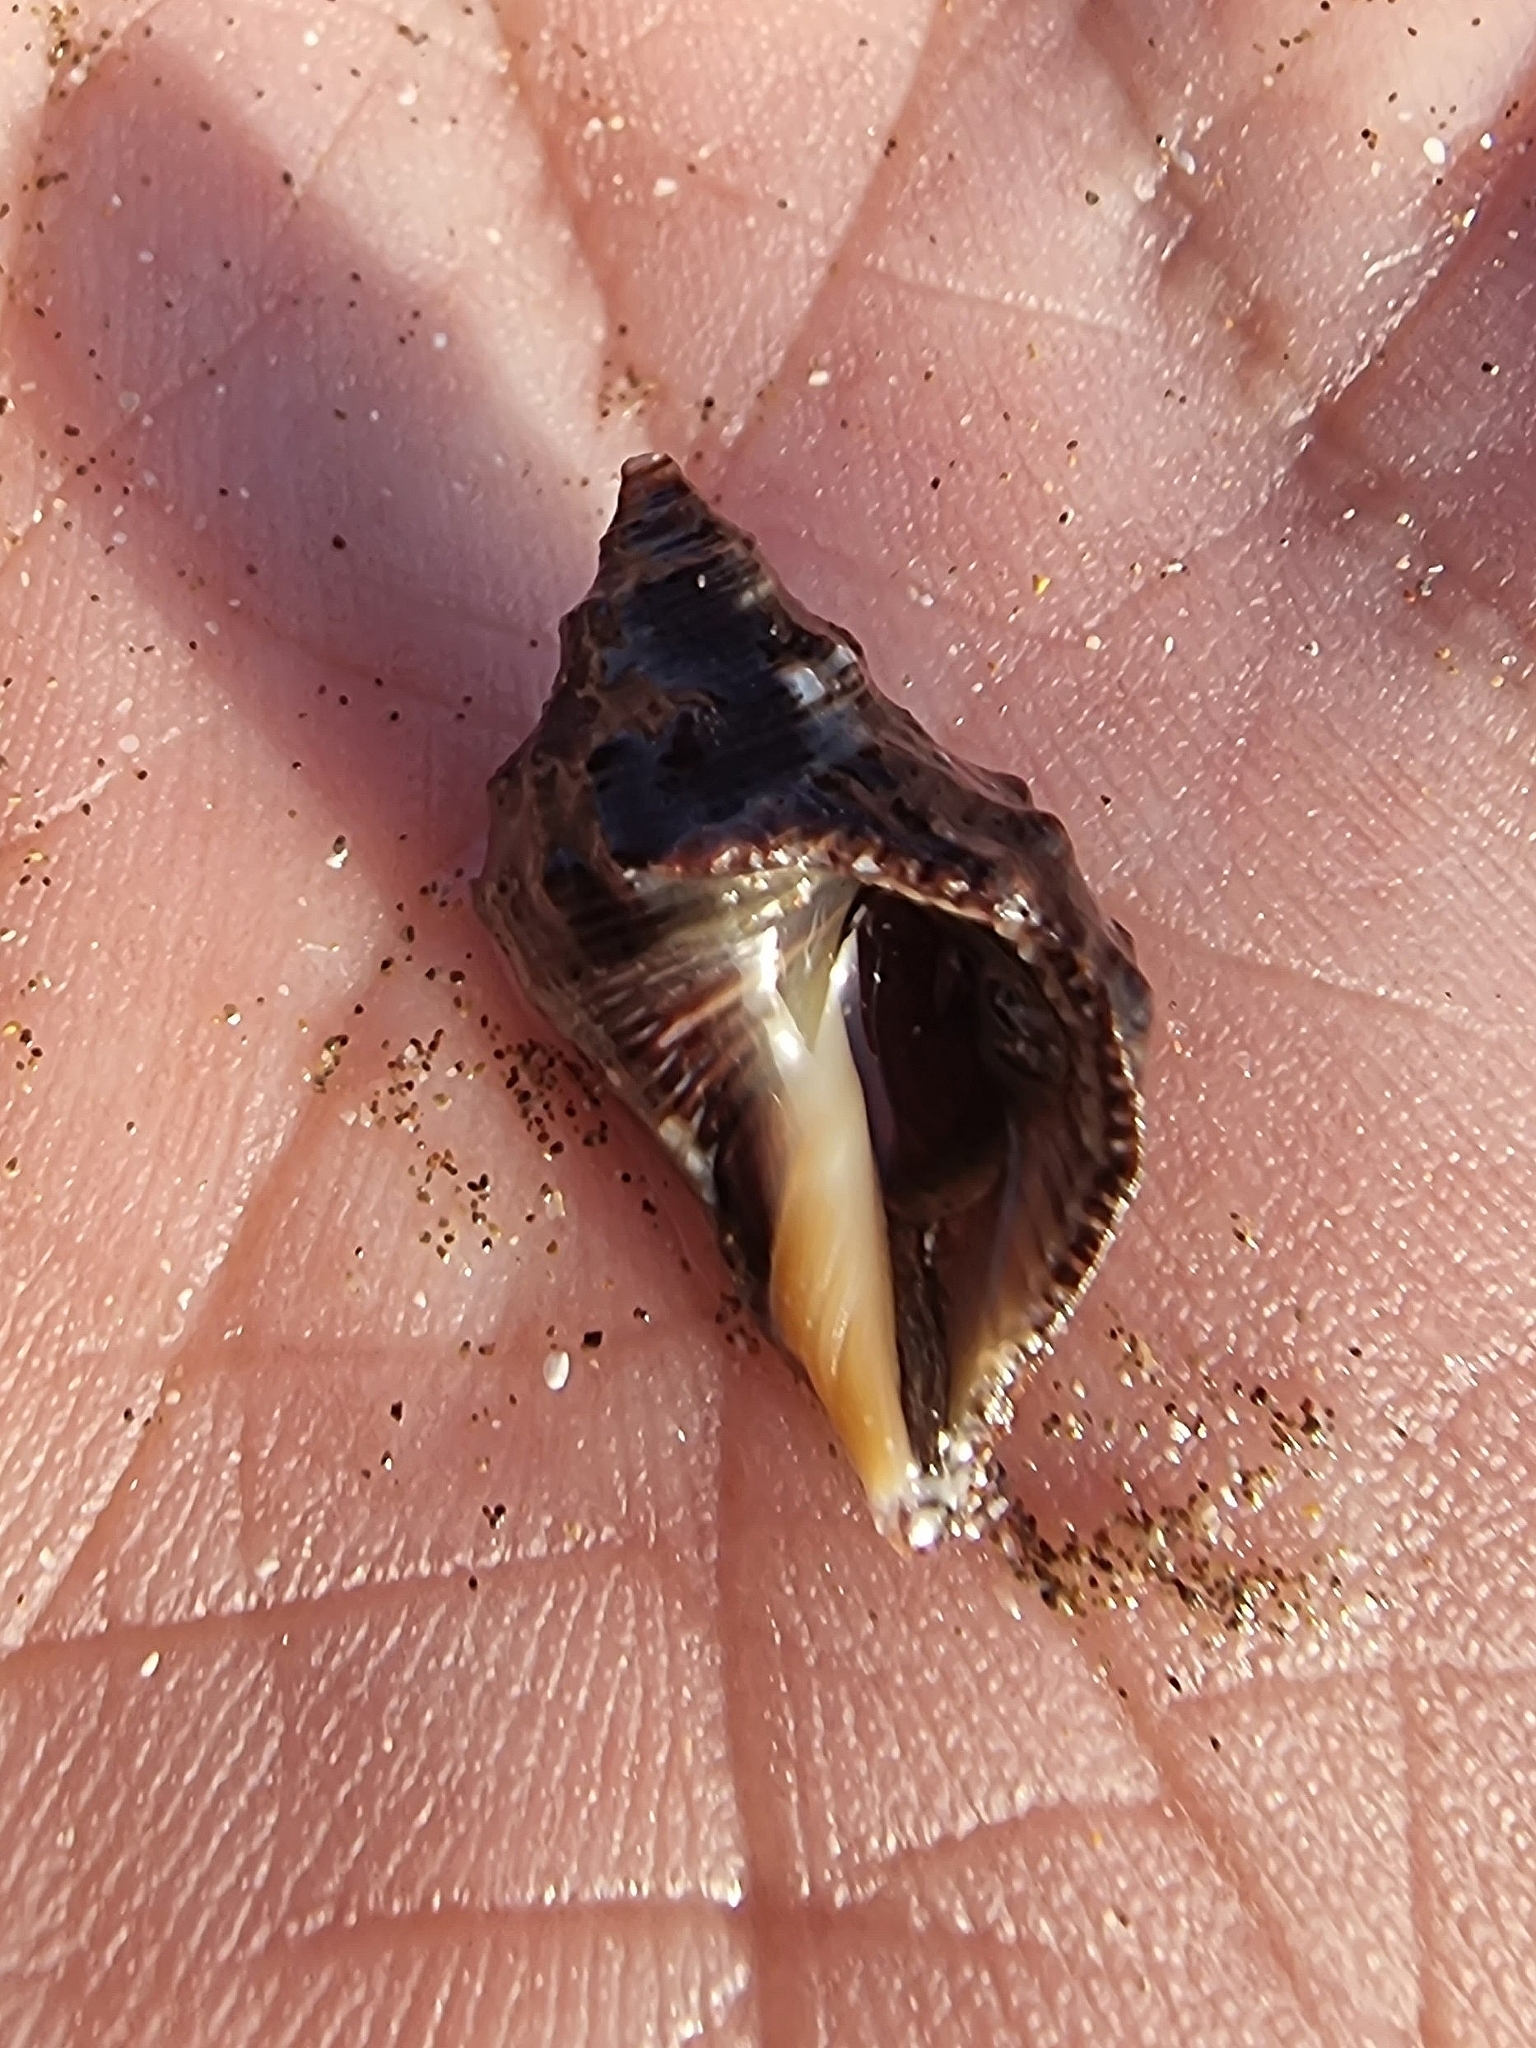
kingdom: Animalia
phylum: Mollusca
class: Gastropoda
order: Neogastropoda
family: Muricidae
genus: Stramonita
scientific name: Stramonita haemastoma
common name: Florida dog winkle
